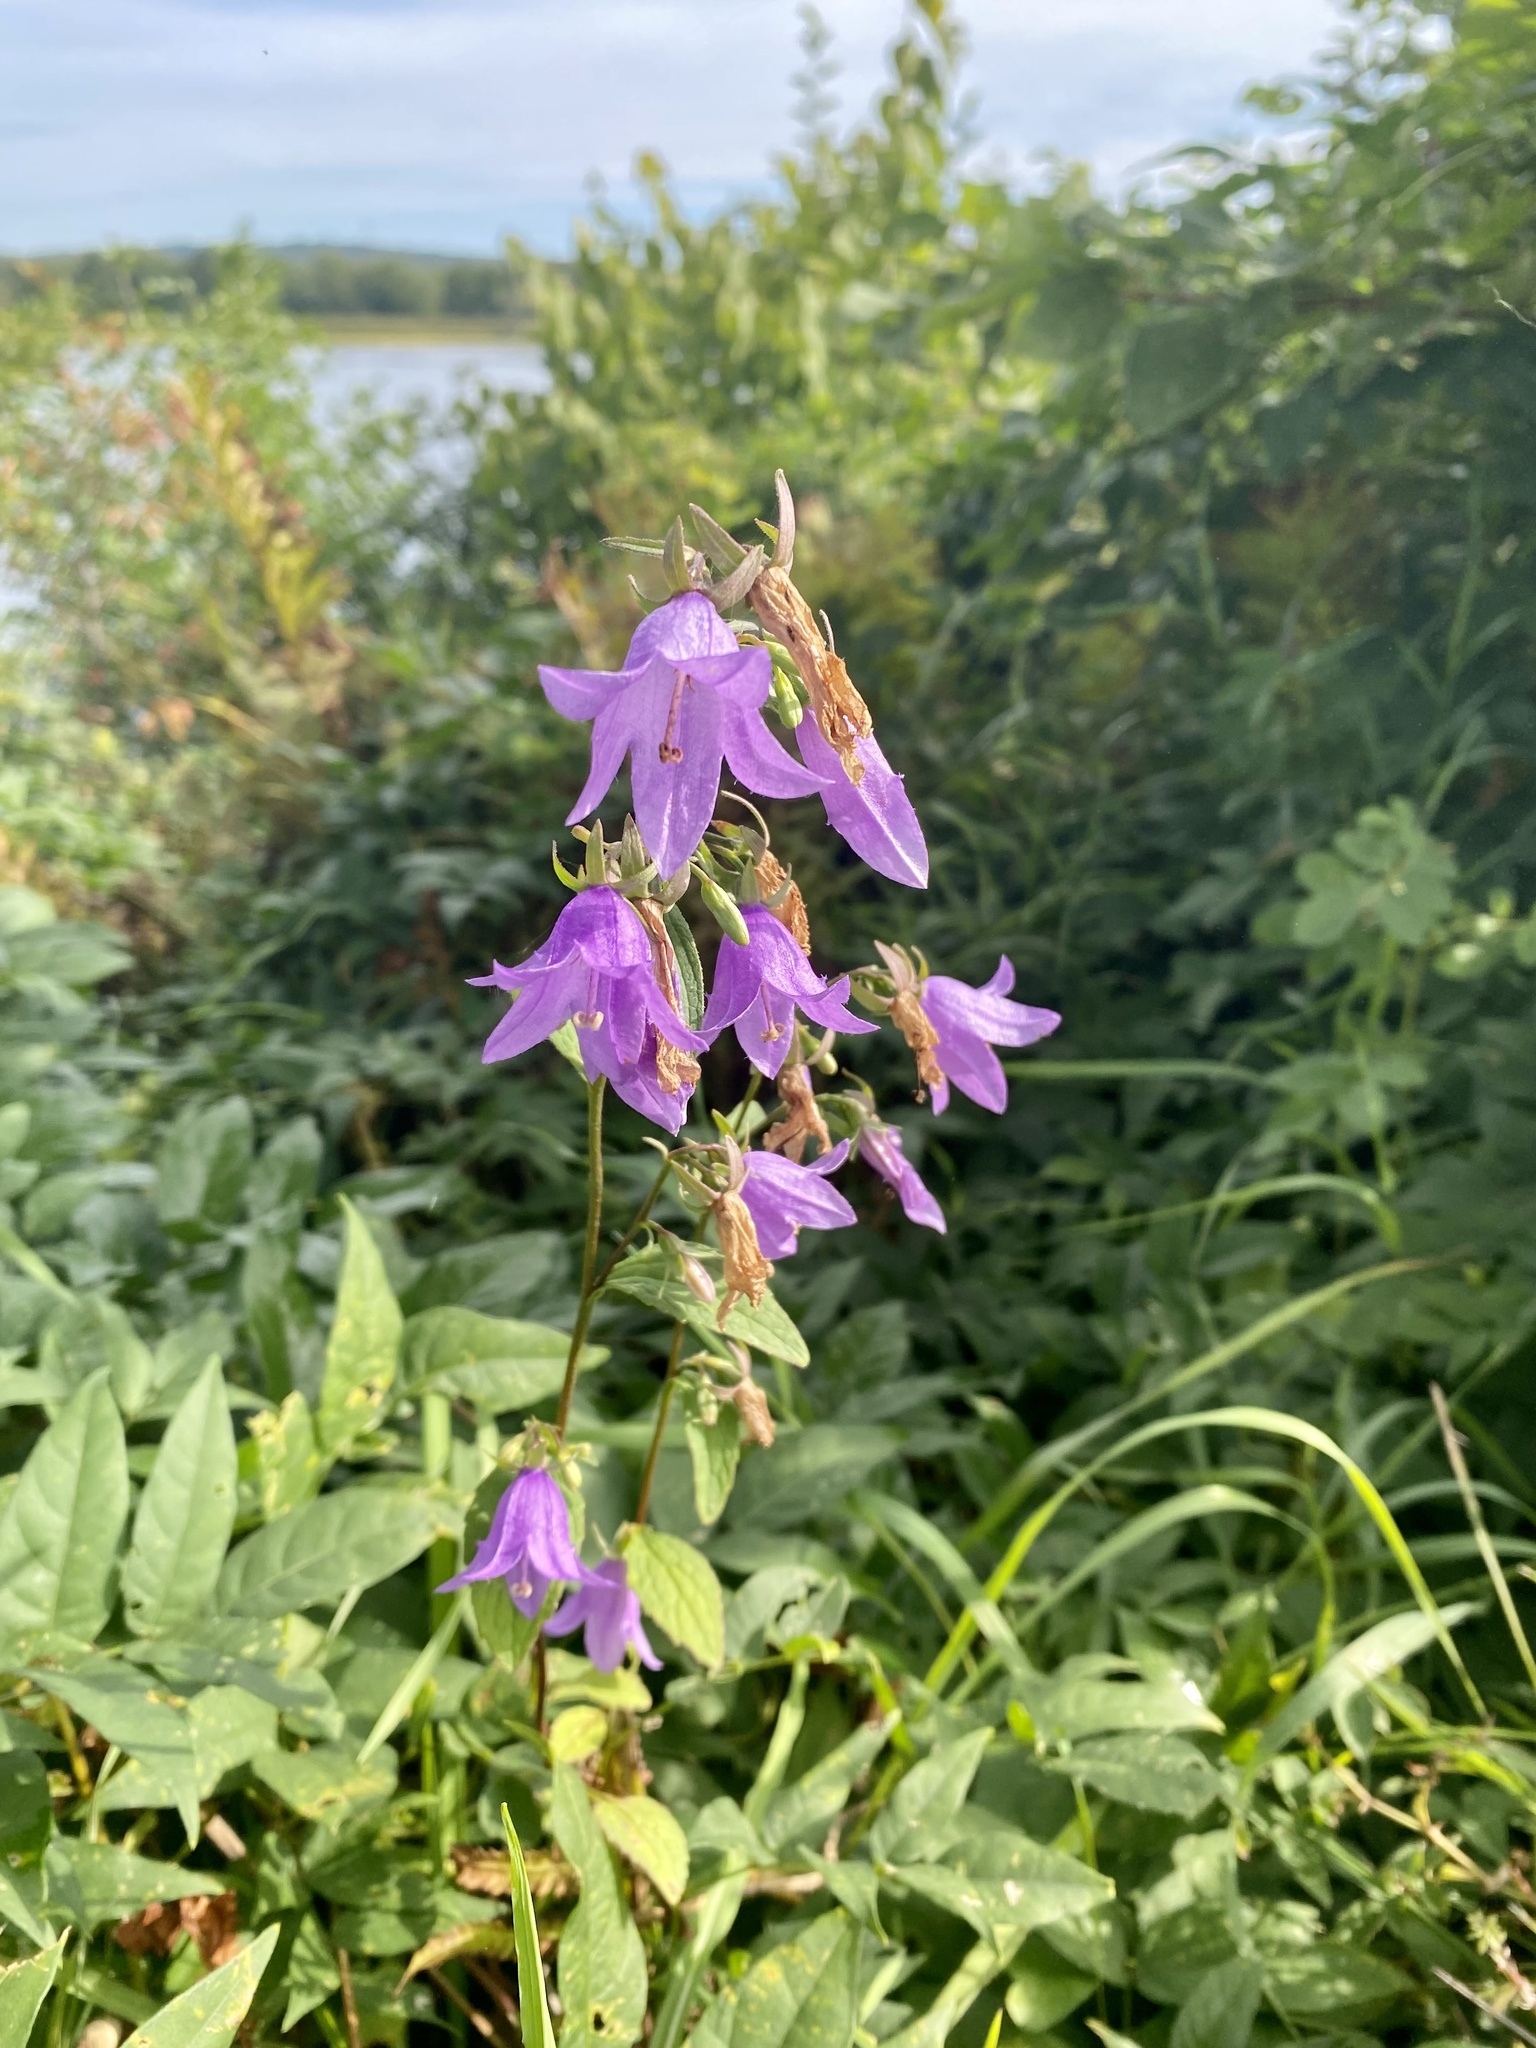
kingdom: Plantae
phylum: Tracheophyta
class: Magnoliopsida
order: Asterales
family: Campanulaceae
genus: Campanula
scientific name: Campanula rapunculoides
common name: Creeping bellflower
